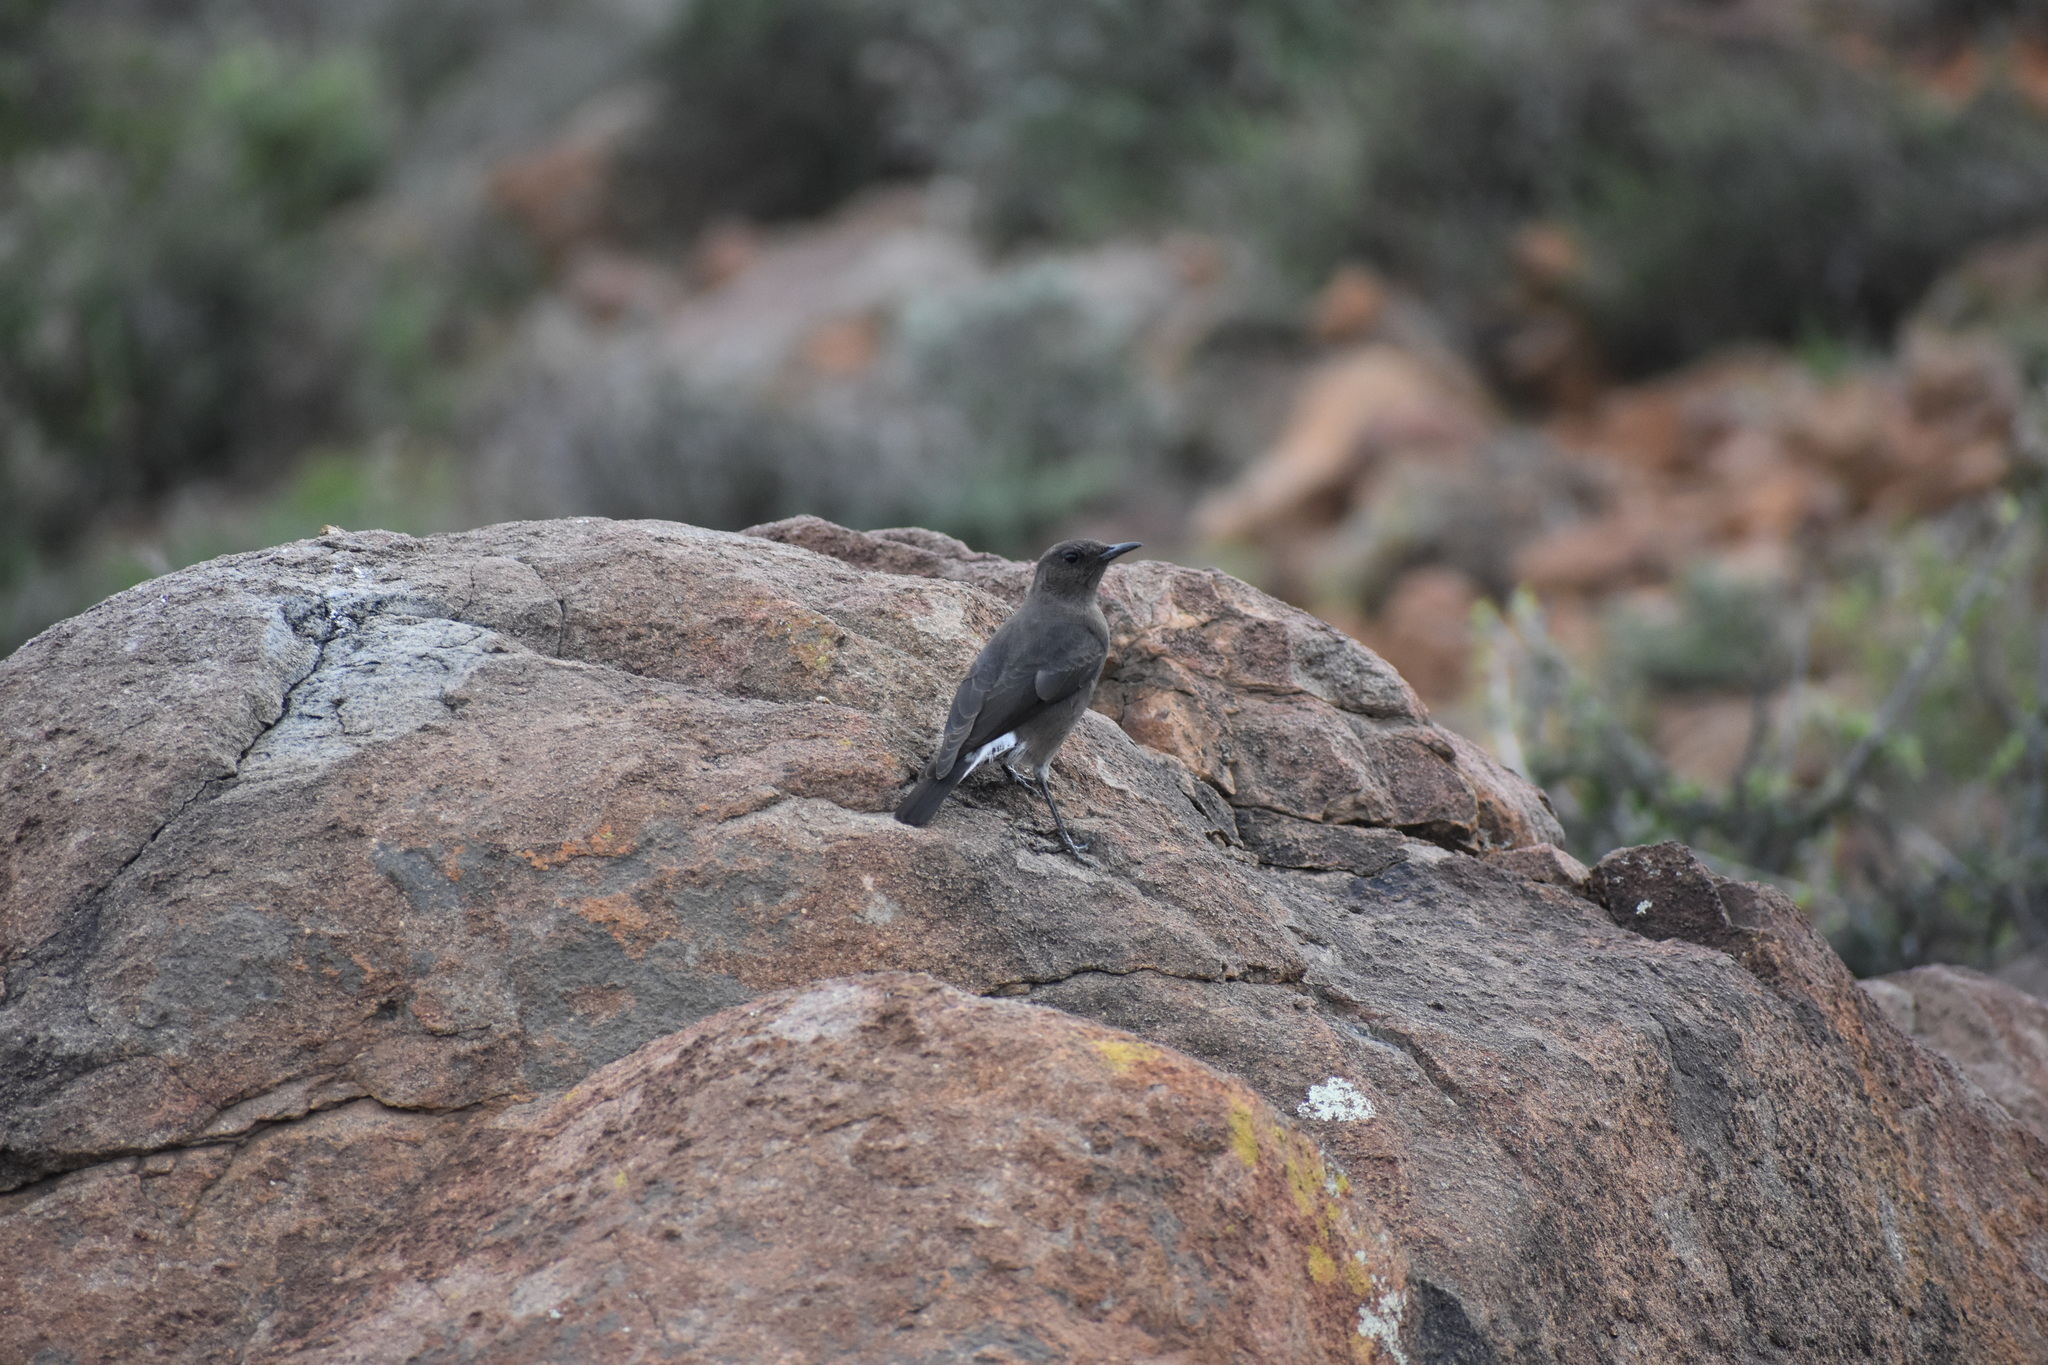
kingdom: Animalia
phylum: Chordata
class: Aves
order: Passeriformes
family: Muscicapidae
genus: Oenanthe
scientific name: Oenanthe monticola
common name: Mountain wheatear
